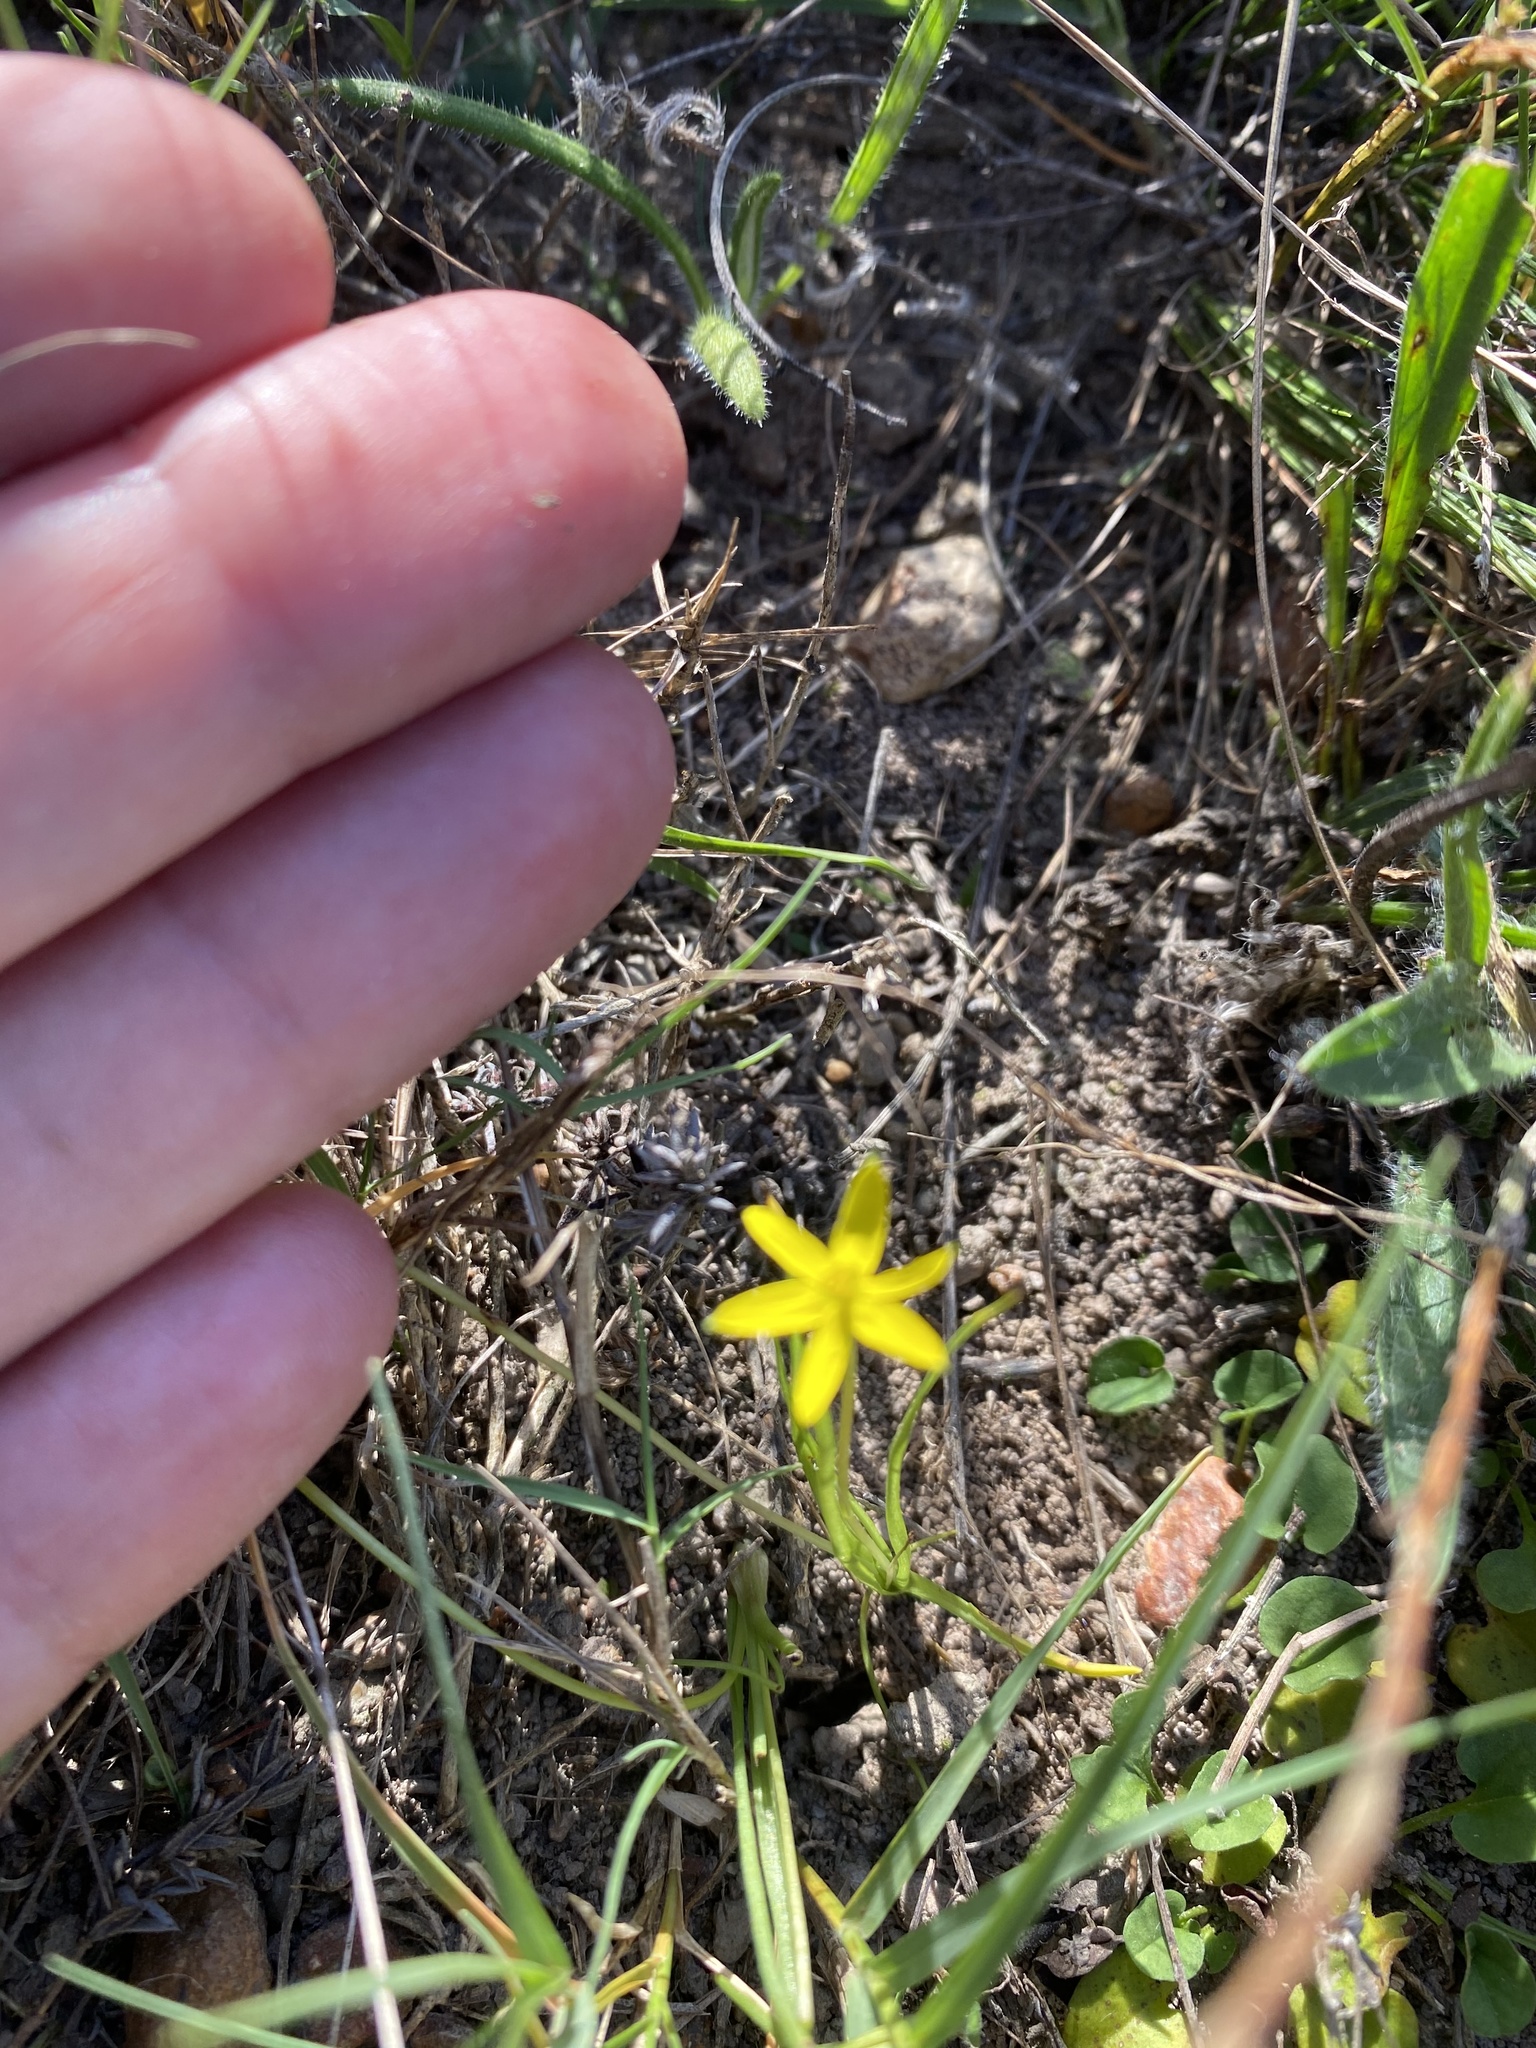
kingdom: Plantae
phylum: Tracheophyta
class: Liliopsida
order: Asparagales
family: Hypoxidaceae
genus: Pauridia
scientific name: Pauridia flaccida
